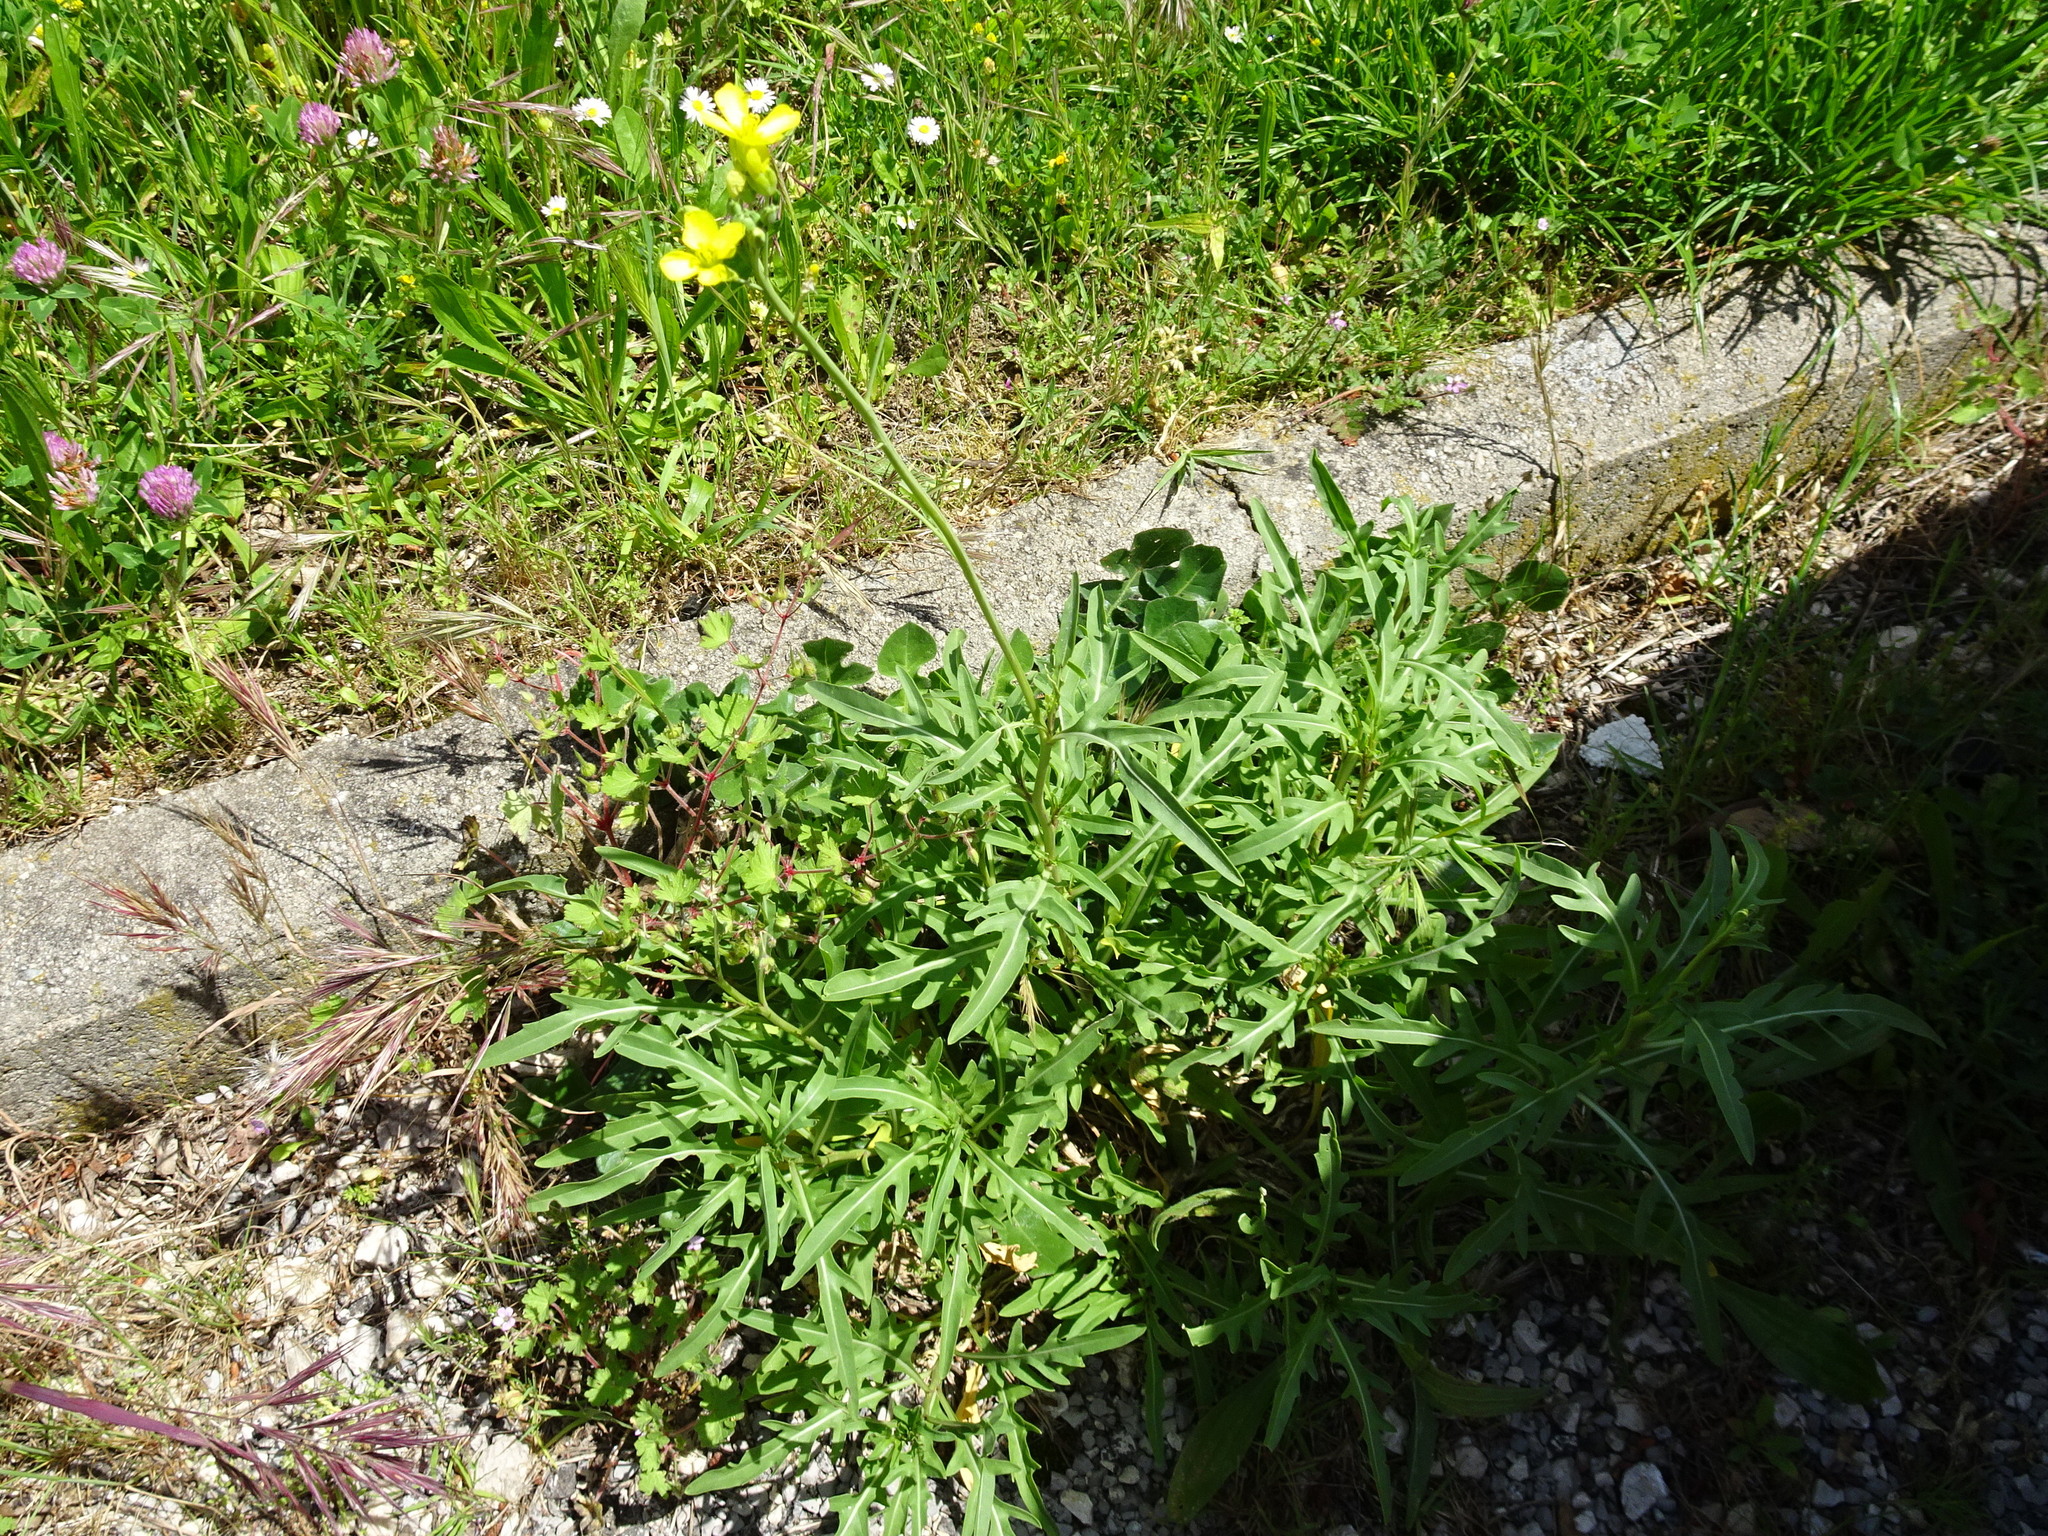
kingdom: Plantae
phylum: Tracheophyta
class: Magnoliopsida
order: Brassicales
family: Brassicaceae
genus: Diplotaxis
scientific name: Diplotaxis tenuifolia
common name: Perennial wall-rocket
